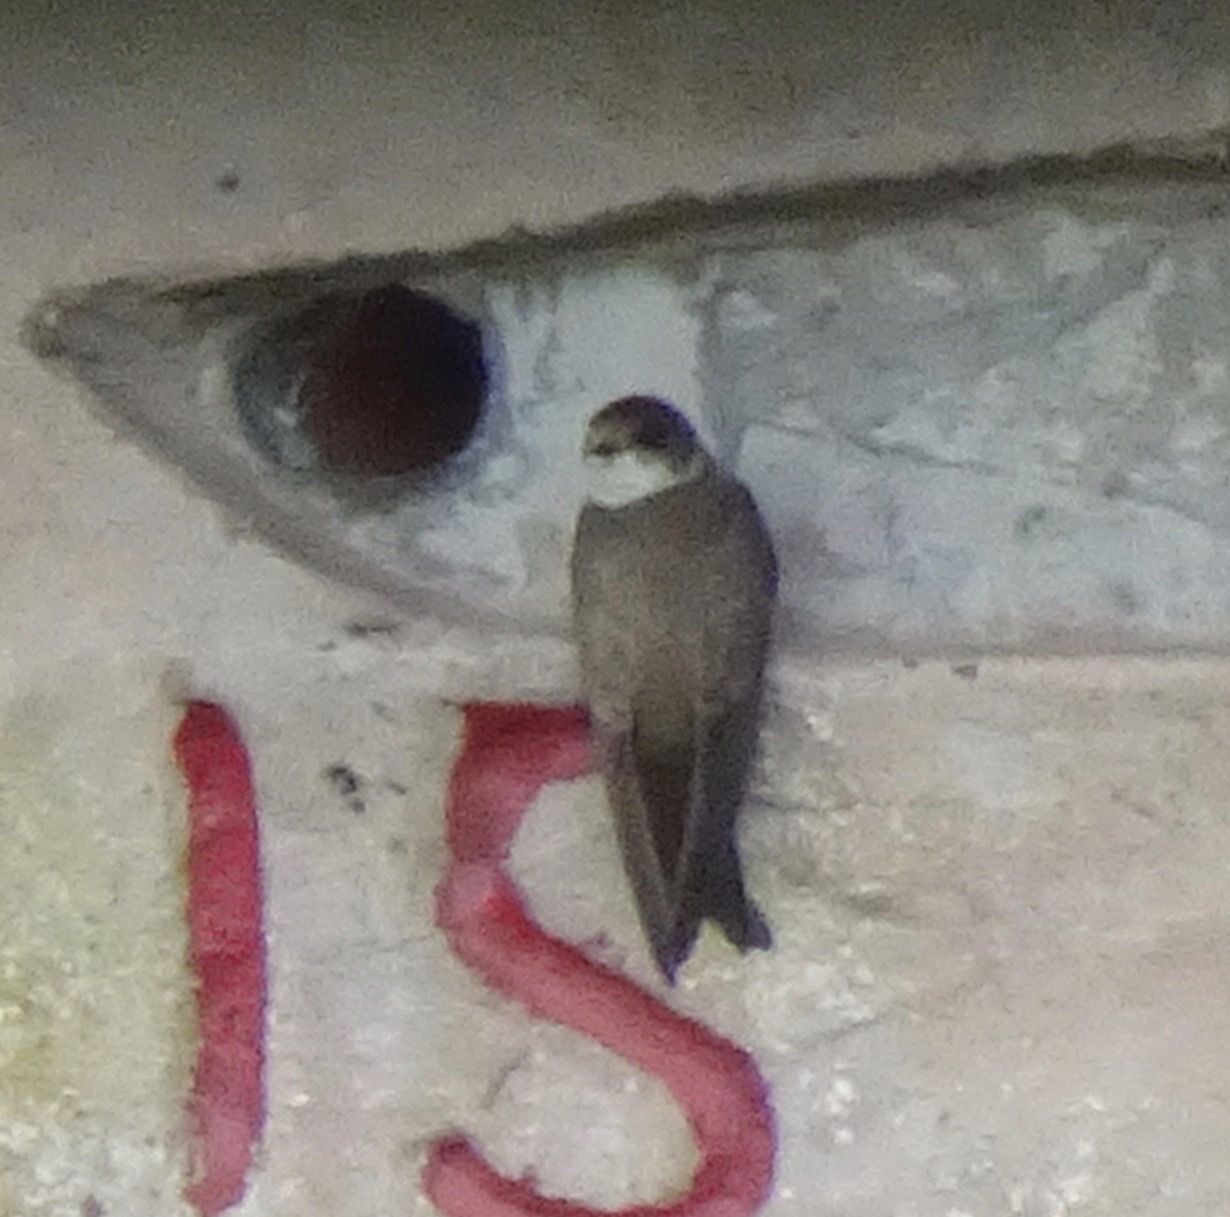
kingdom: Animalia
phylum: Chordata
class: Aves
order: Passeriformes
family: Hirundinidae
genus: Riparia
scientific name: Riparia riparia
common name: Sand martin
